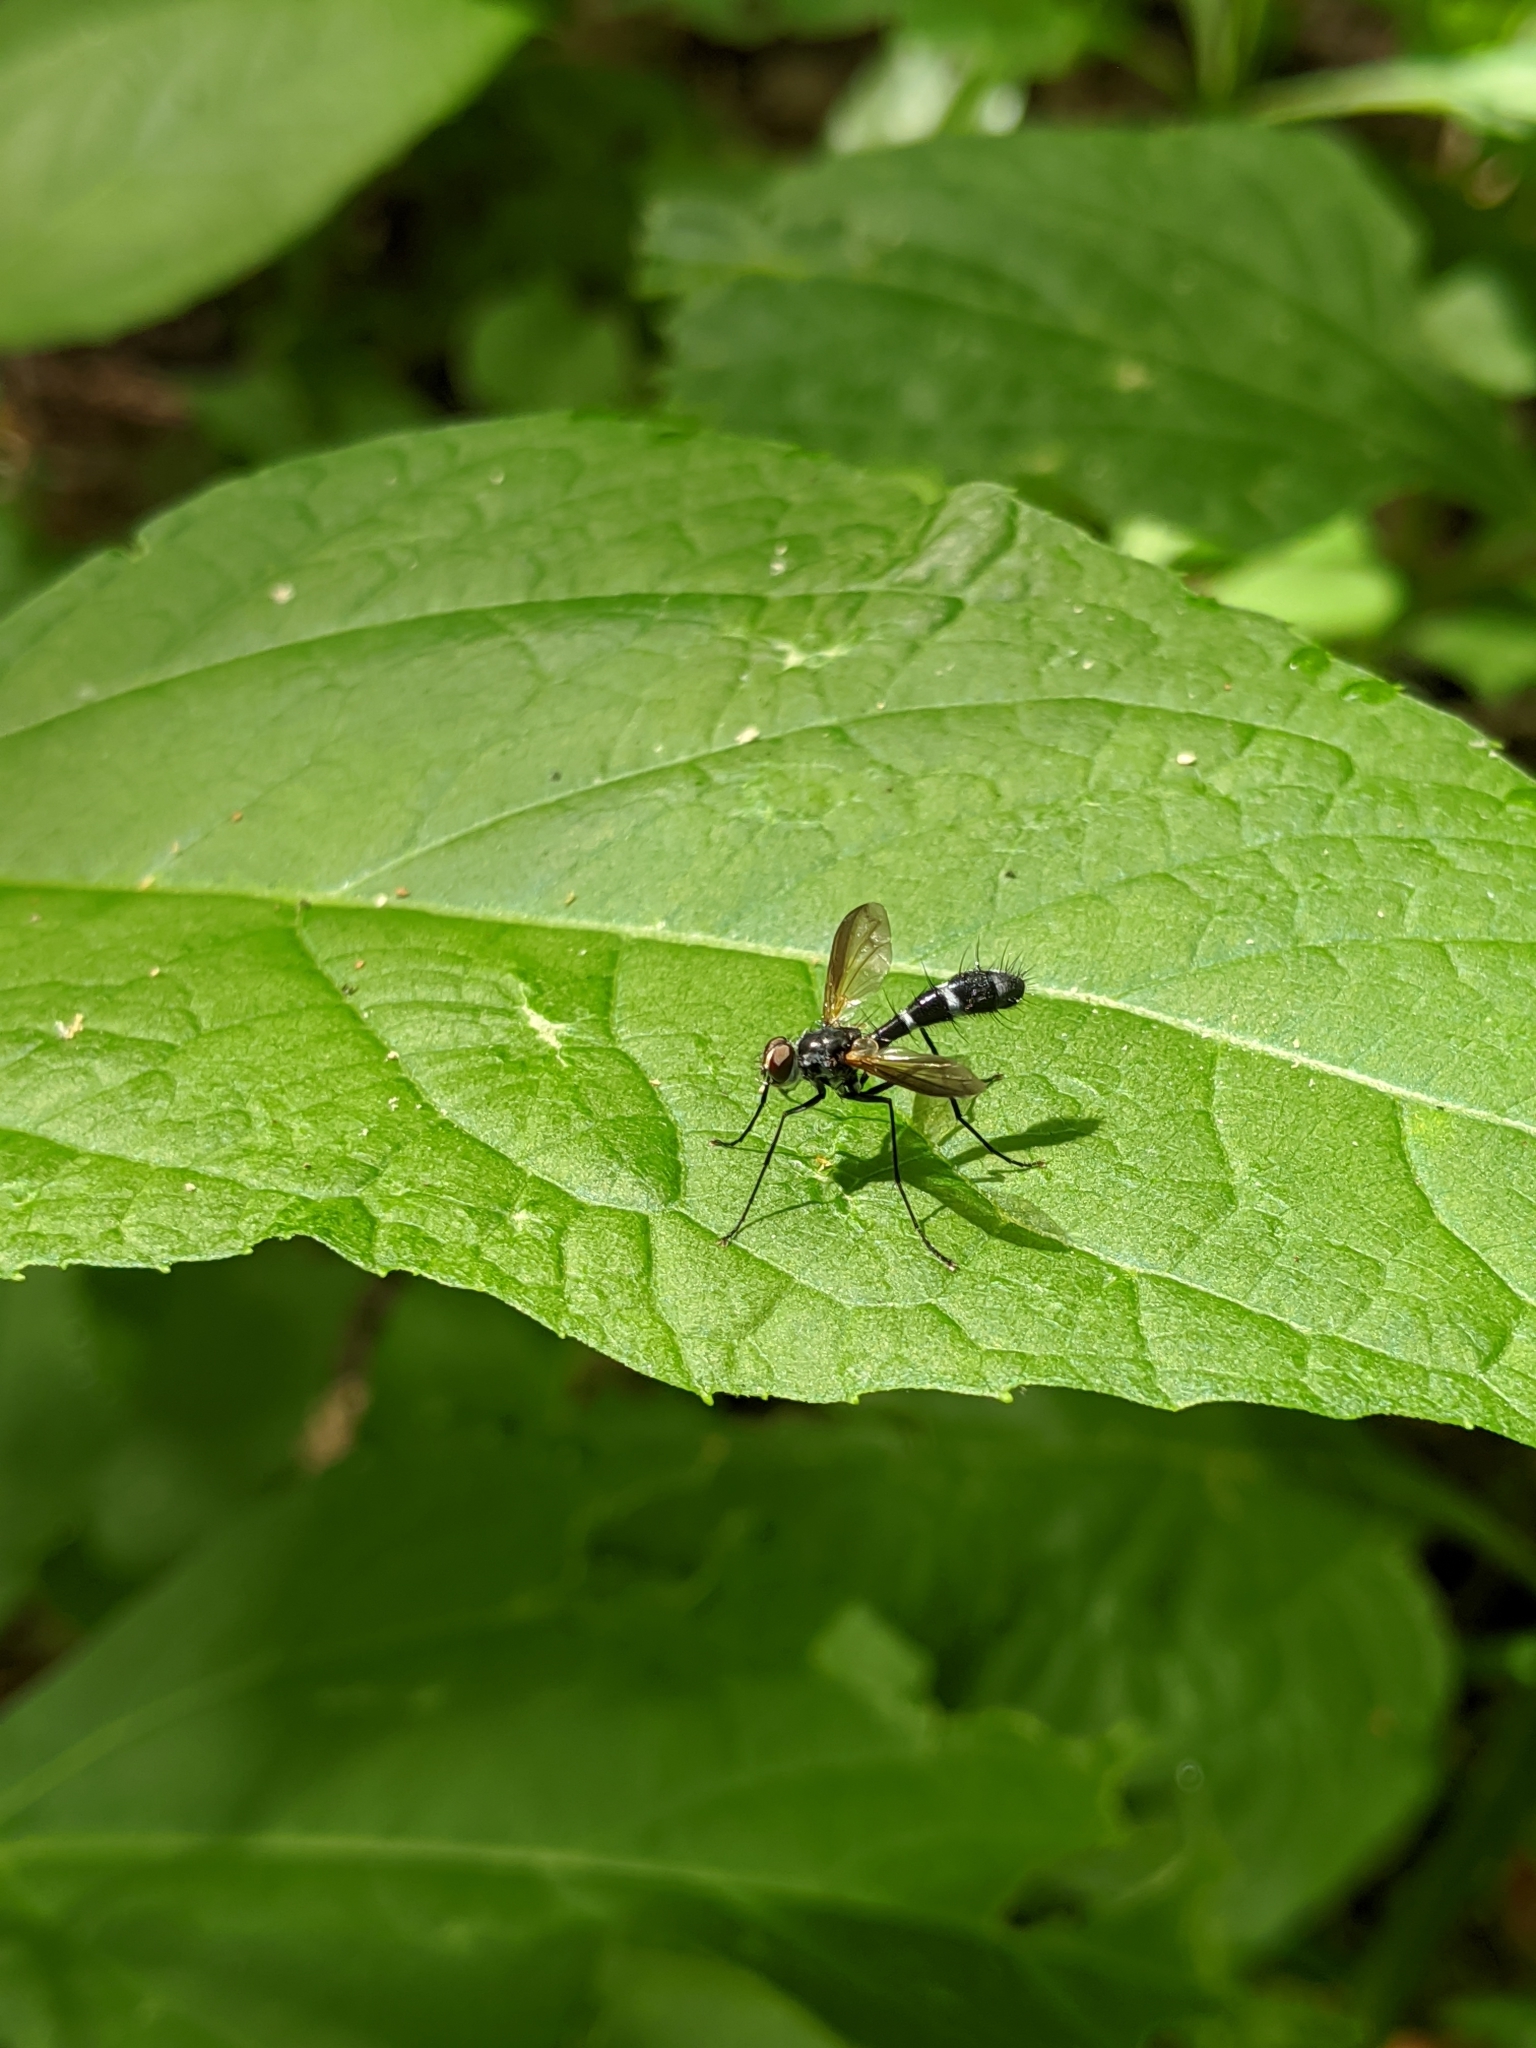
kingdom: Animalia
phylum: Arthropoda
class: Insecta
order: Diptera
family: Tachinidae
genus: Cordyligaster
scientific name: Cordyligaster septentrionalis
